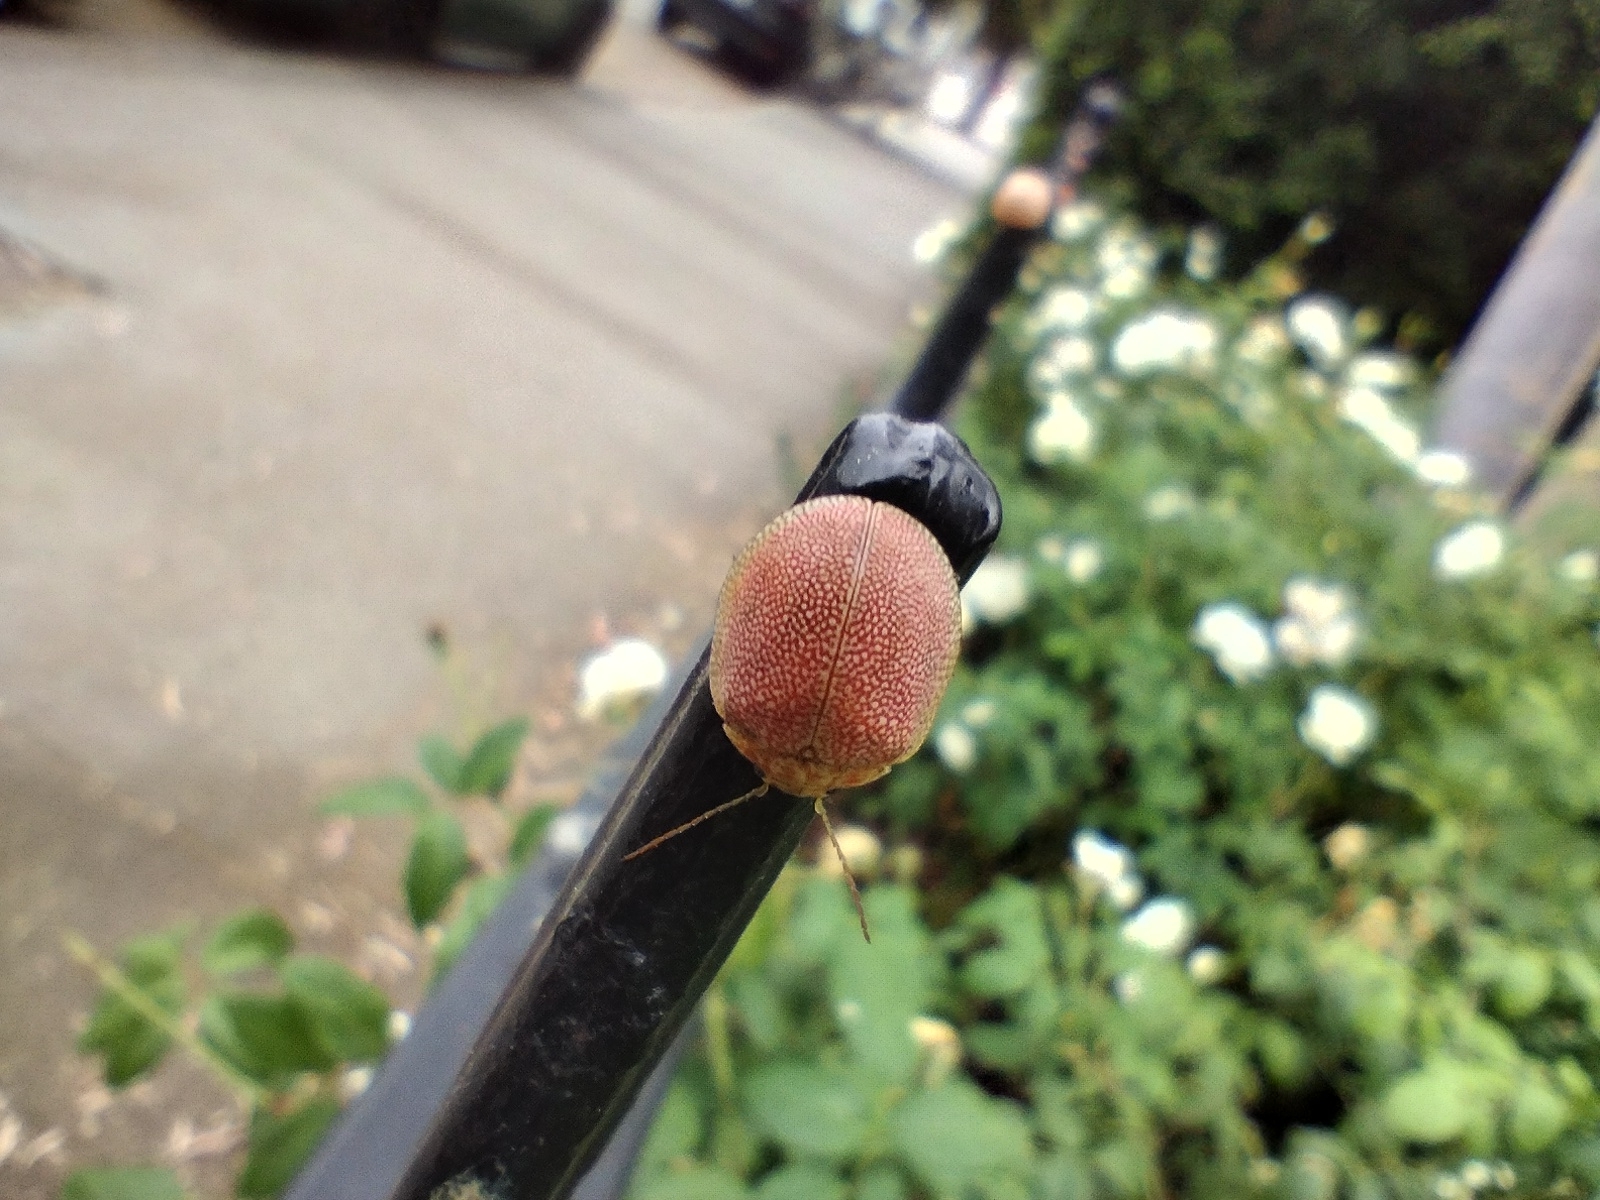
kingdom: Animalia
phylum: Arthropoda
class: Insecta
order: Coleoptera
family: Chrysomelidae
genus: Paropsis
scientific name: Paropsis
